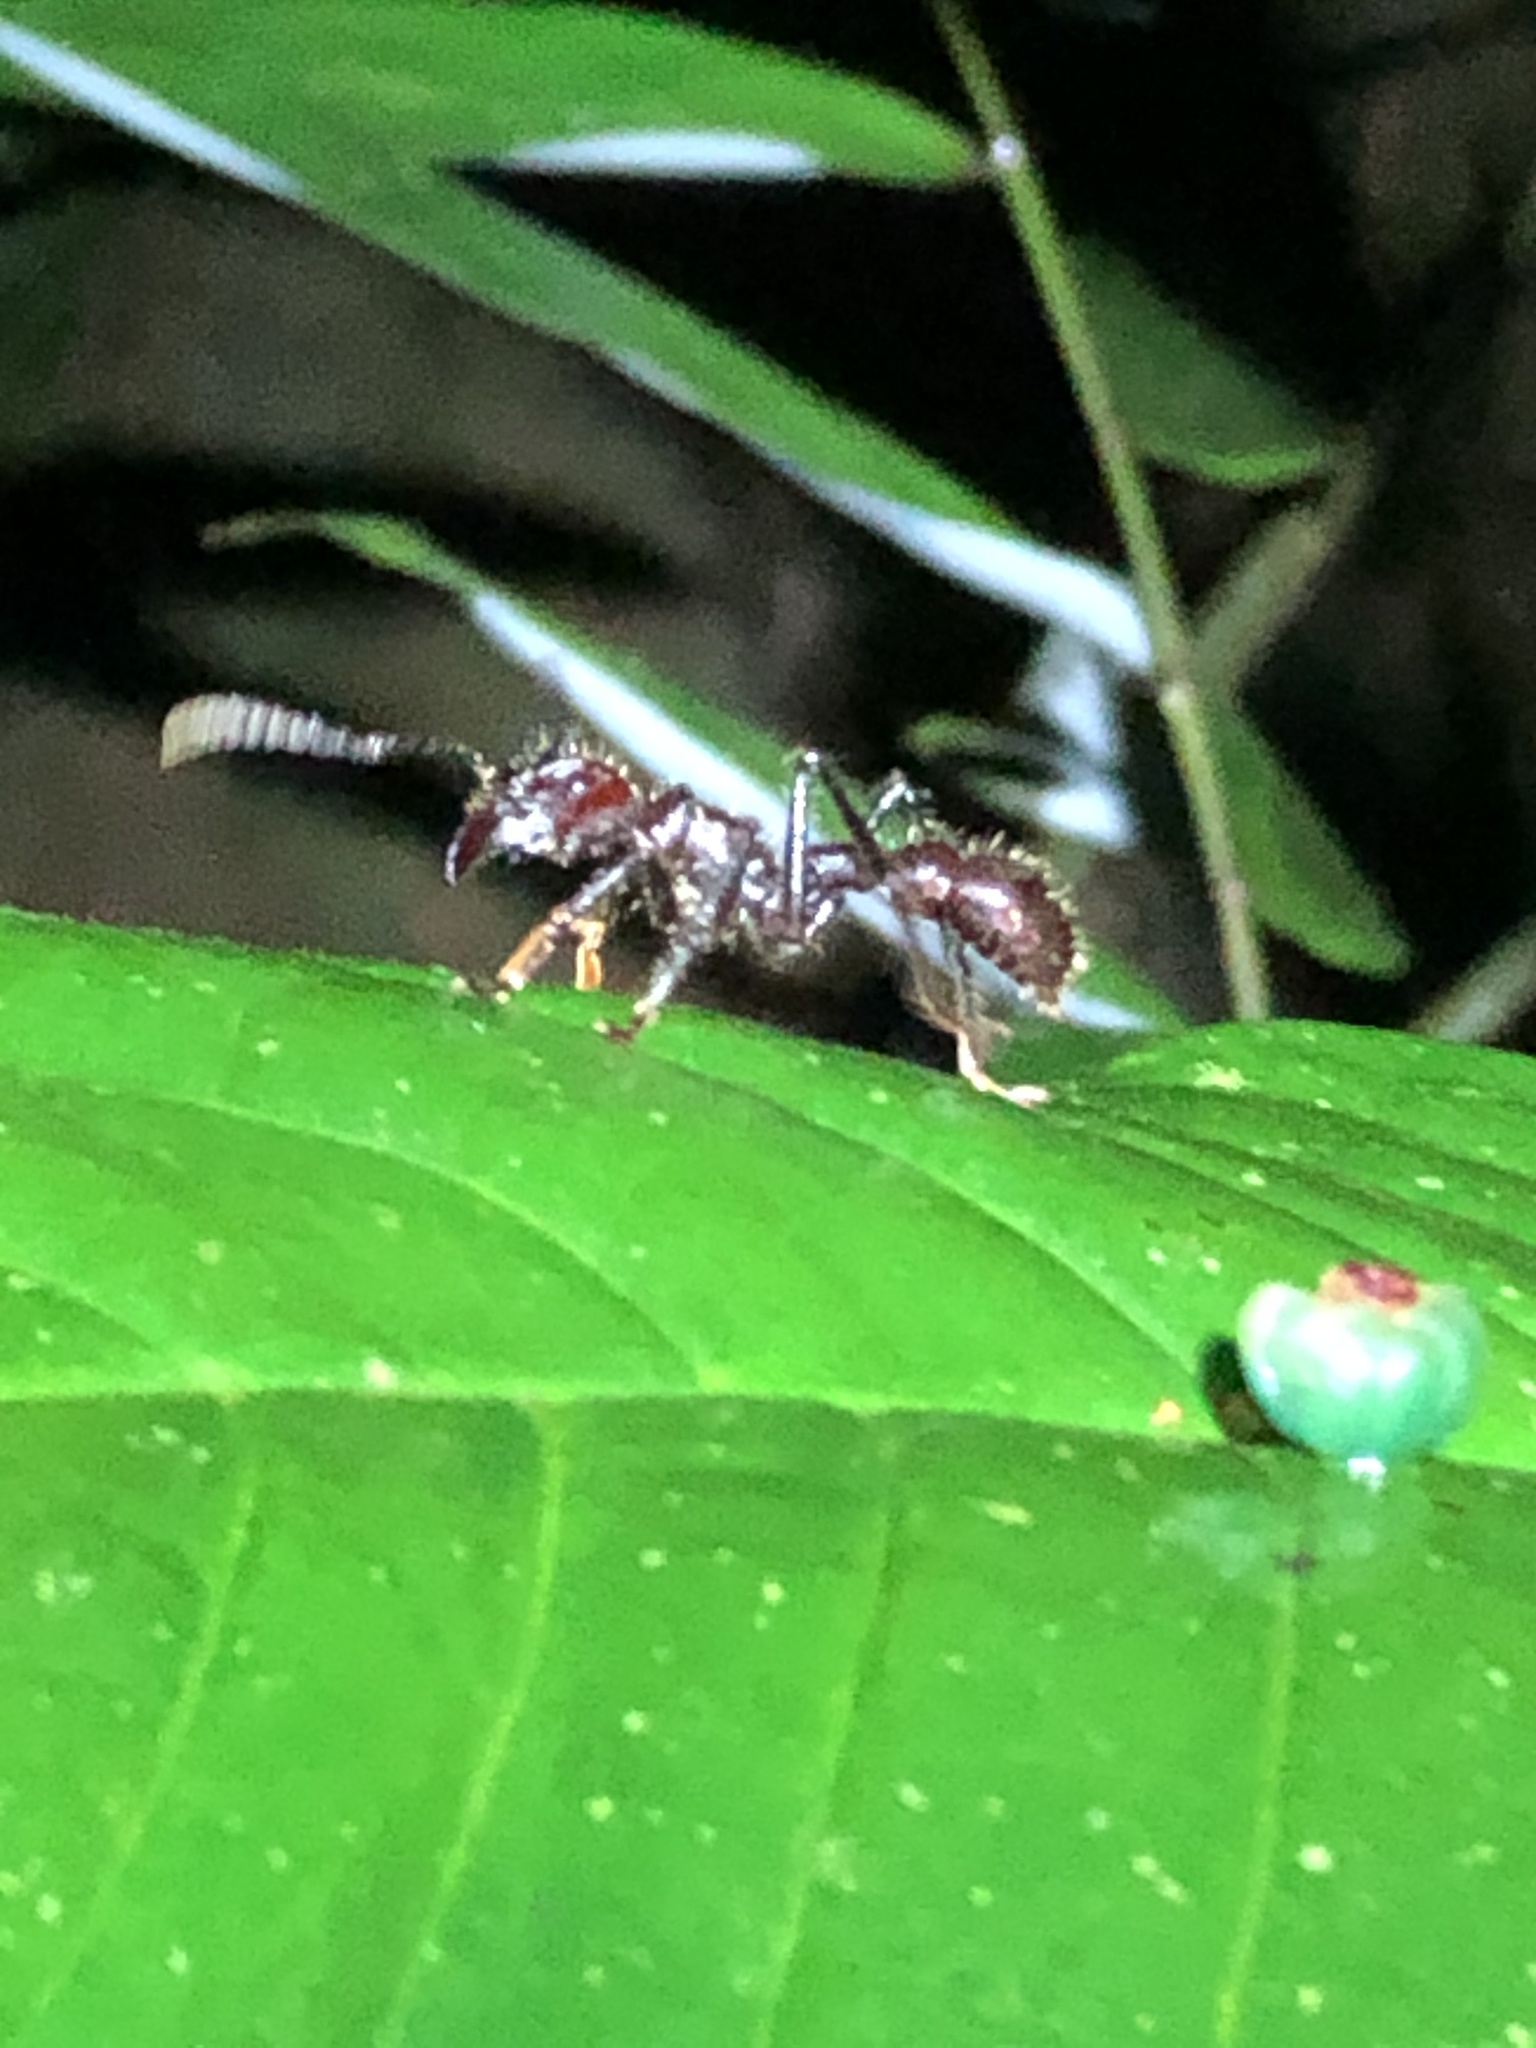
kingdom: Animalia
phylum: Arthropoda
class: Insecta
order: Hymenoptera
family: Formicidae
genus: Paraponera
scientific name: Paraponera clavata
